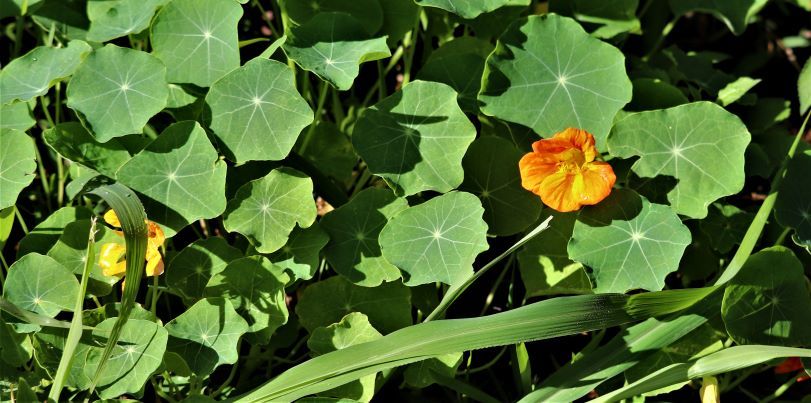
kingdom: Plantae
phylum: Tracheophyta
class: Magnoliopsida
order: Brassicales
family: Tropaeolaceae
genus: Tropaeolum
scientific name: Tropaeolum majus
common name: Nasturtium
